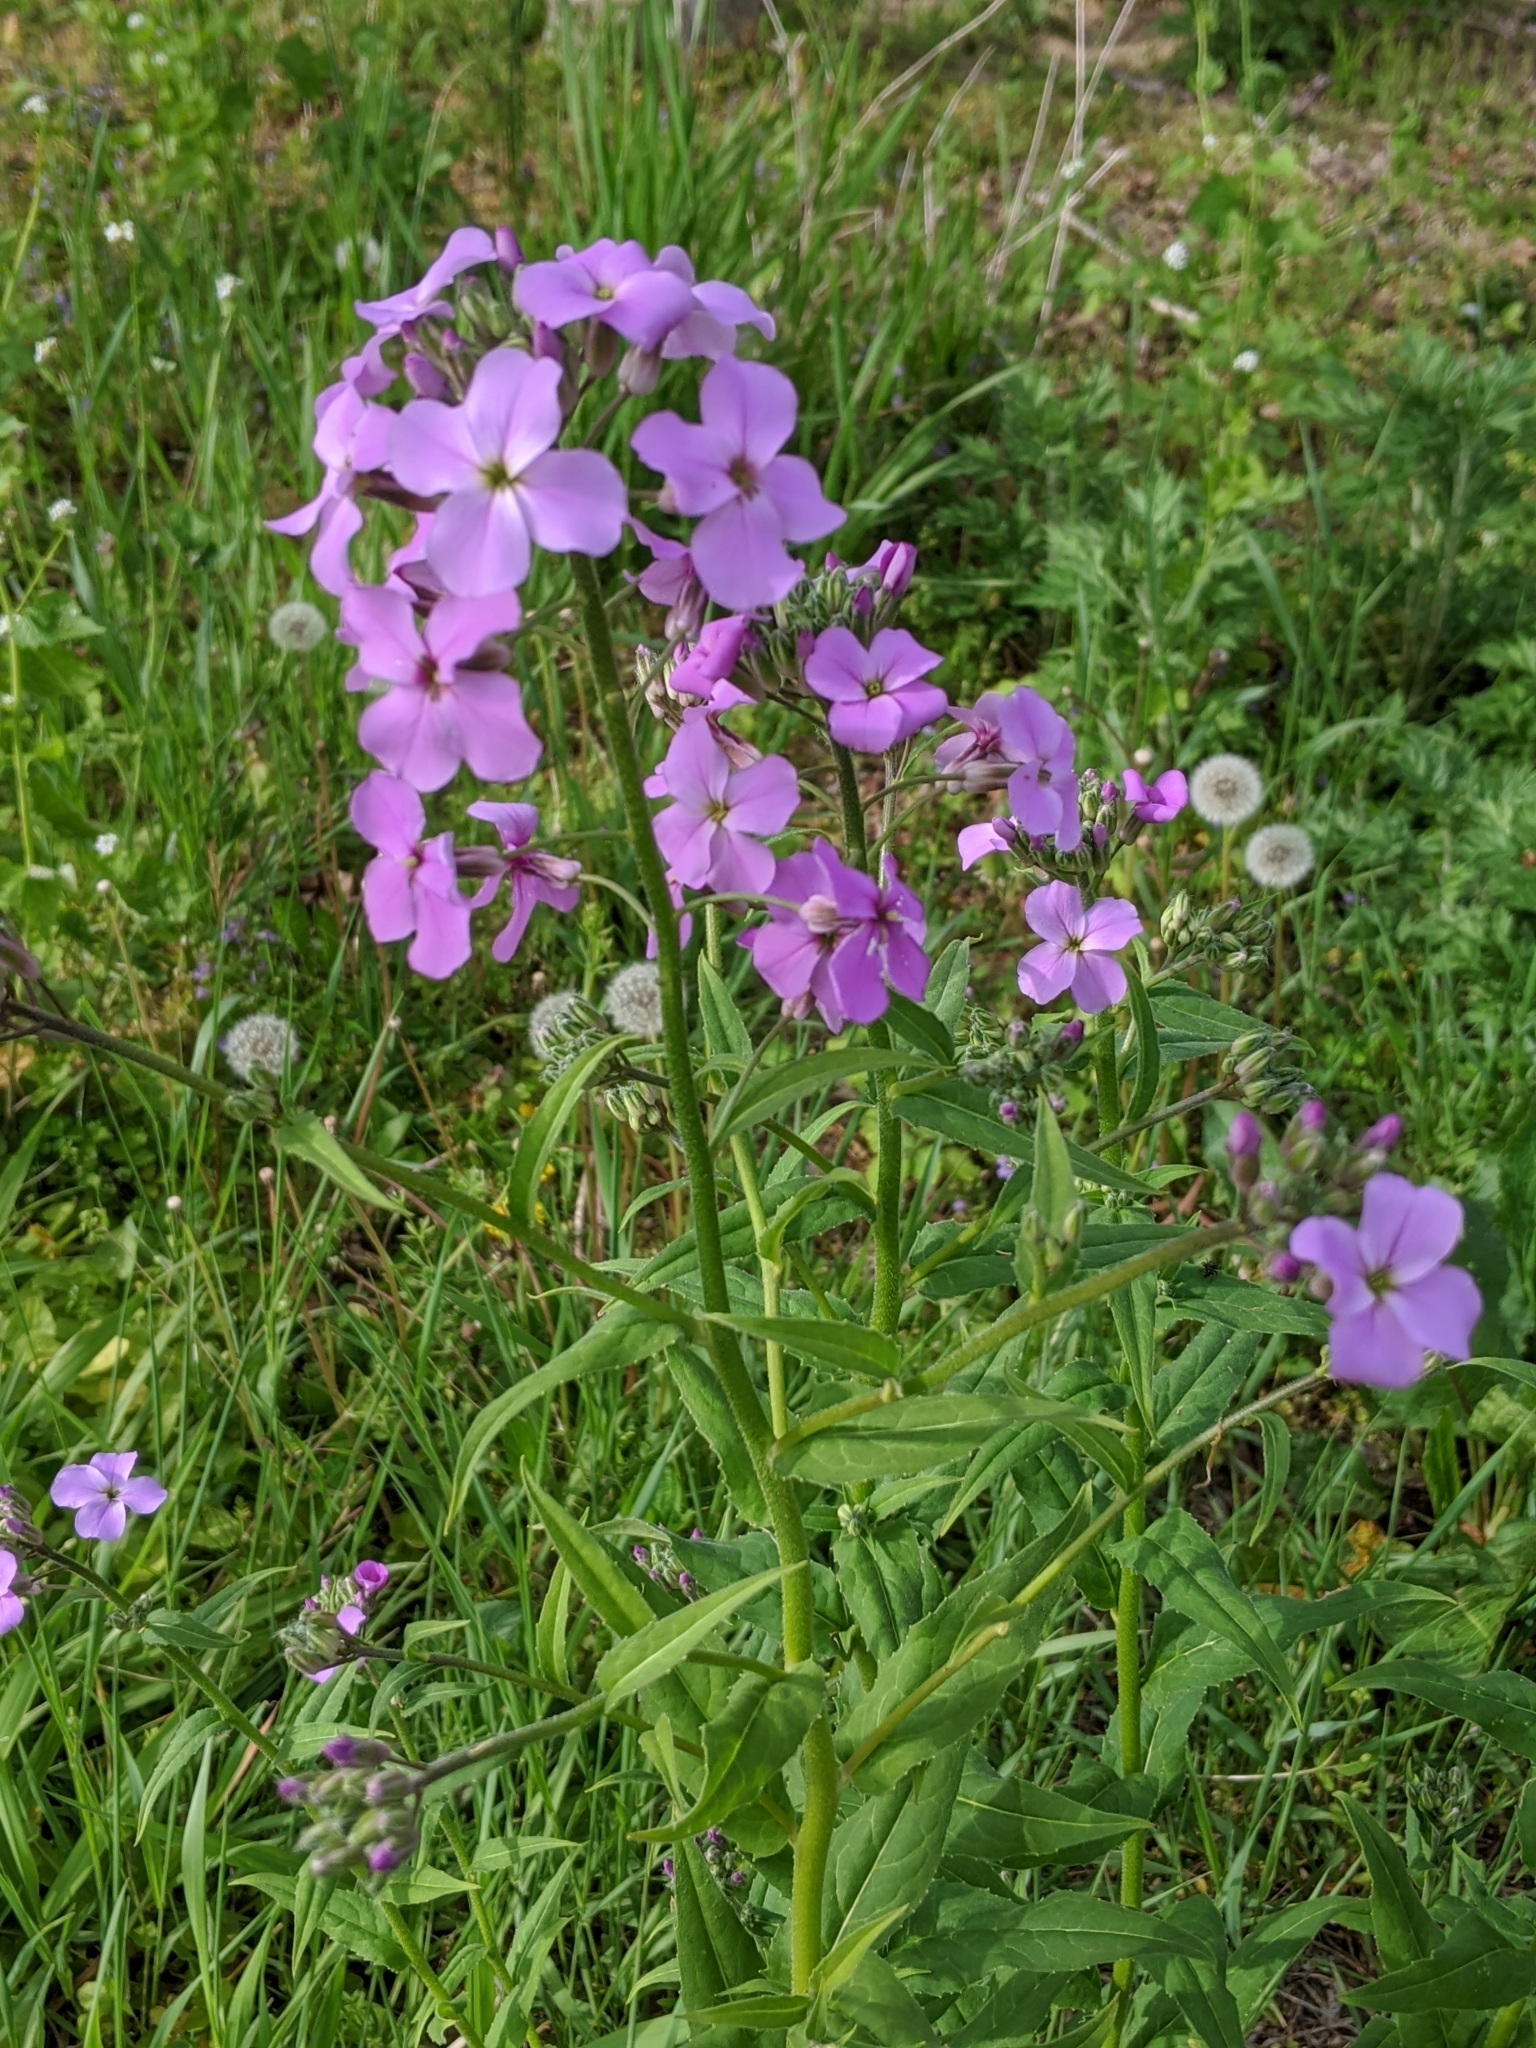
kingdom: Plantae
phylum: Tracheophyta
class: Magnoliopsida
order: Brassicales
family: Brassicaceae
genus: Hesperis
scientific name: Hesperis matronalis
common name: Dame's-violet
